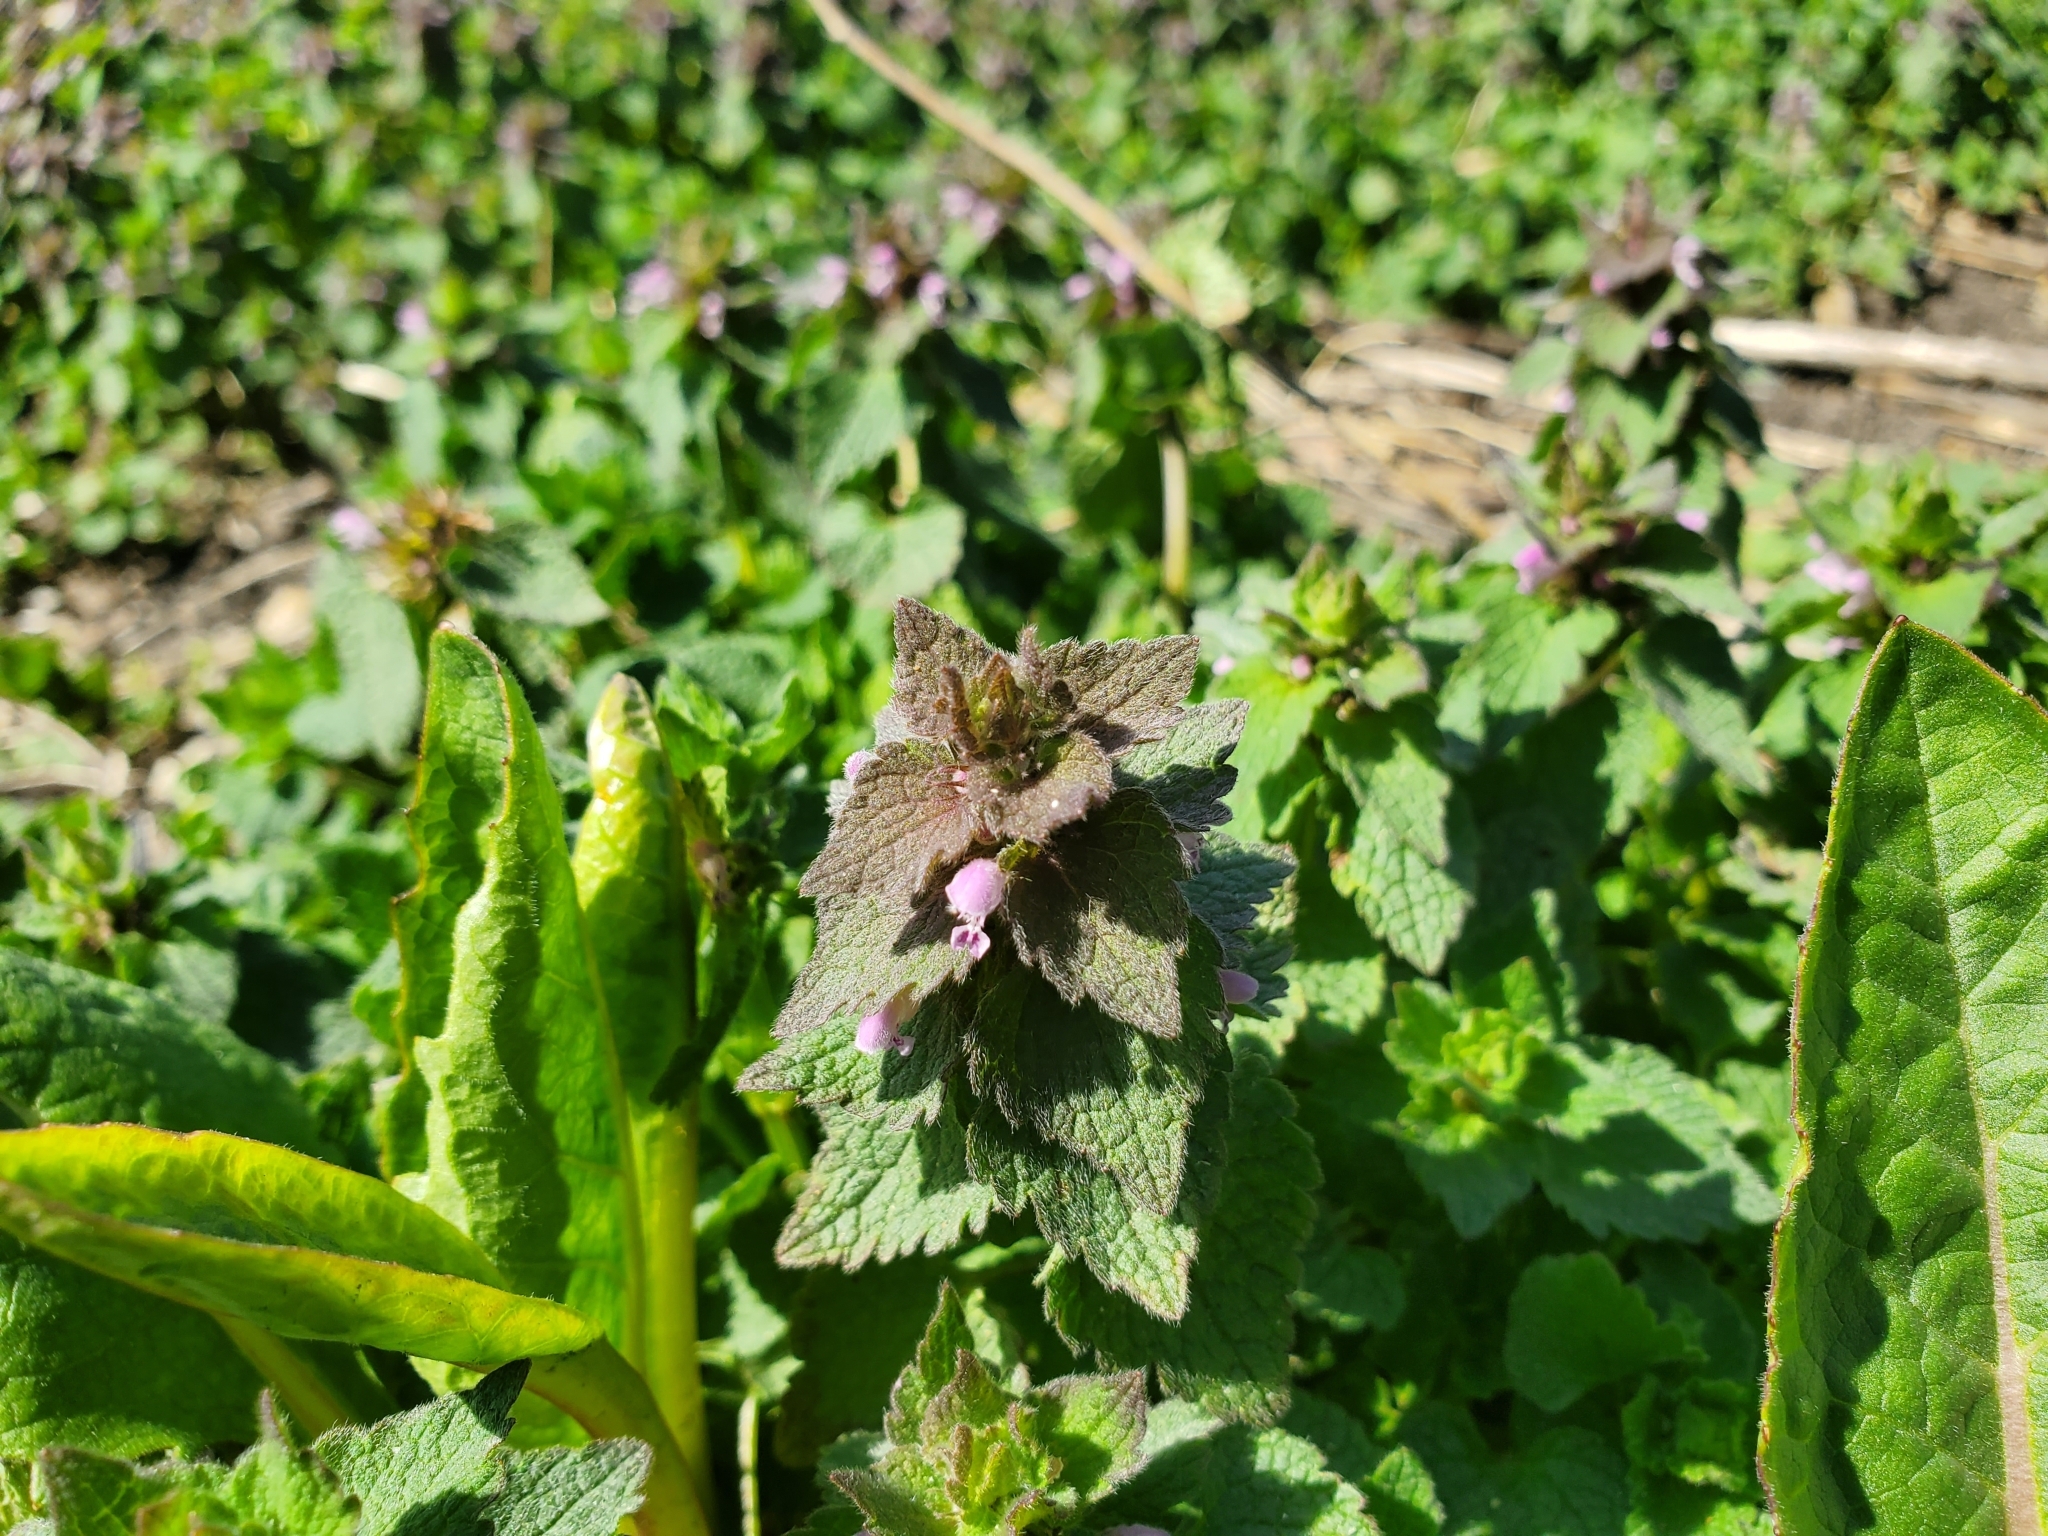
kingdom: Plantae
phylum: Tracheophyta
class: Magnoliopsida
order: Lamiales
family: Lamiaceae
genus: Lamium
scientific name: Lamium purpureum
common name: Red dead-nettle
